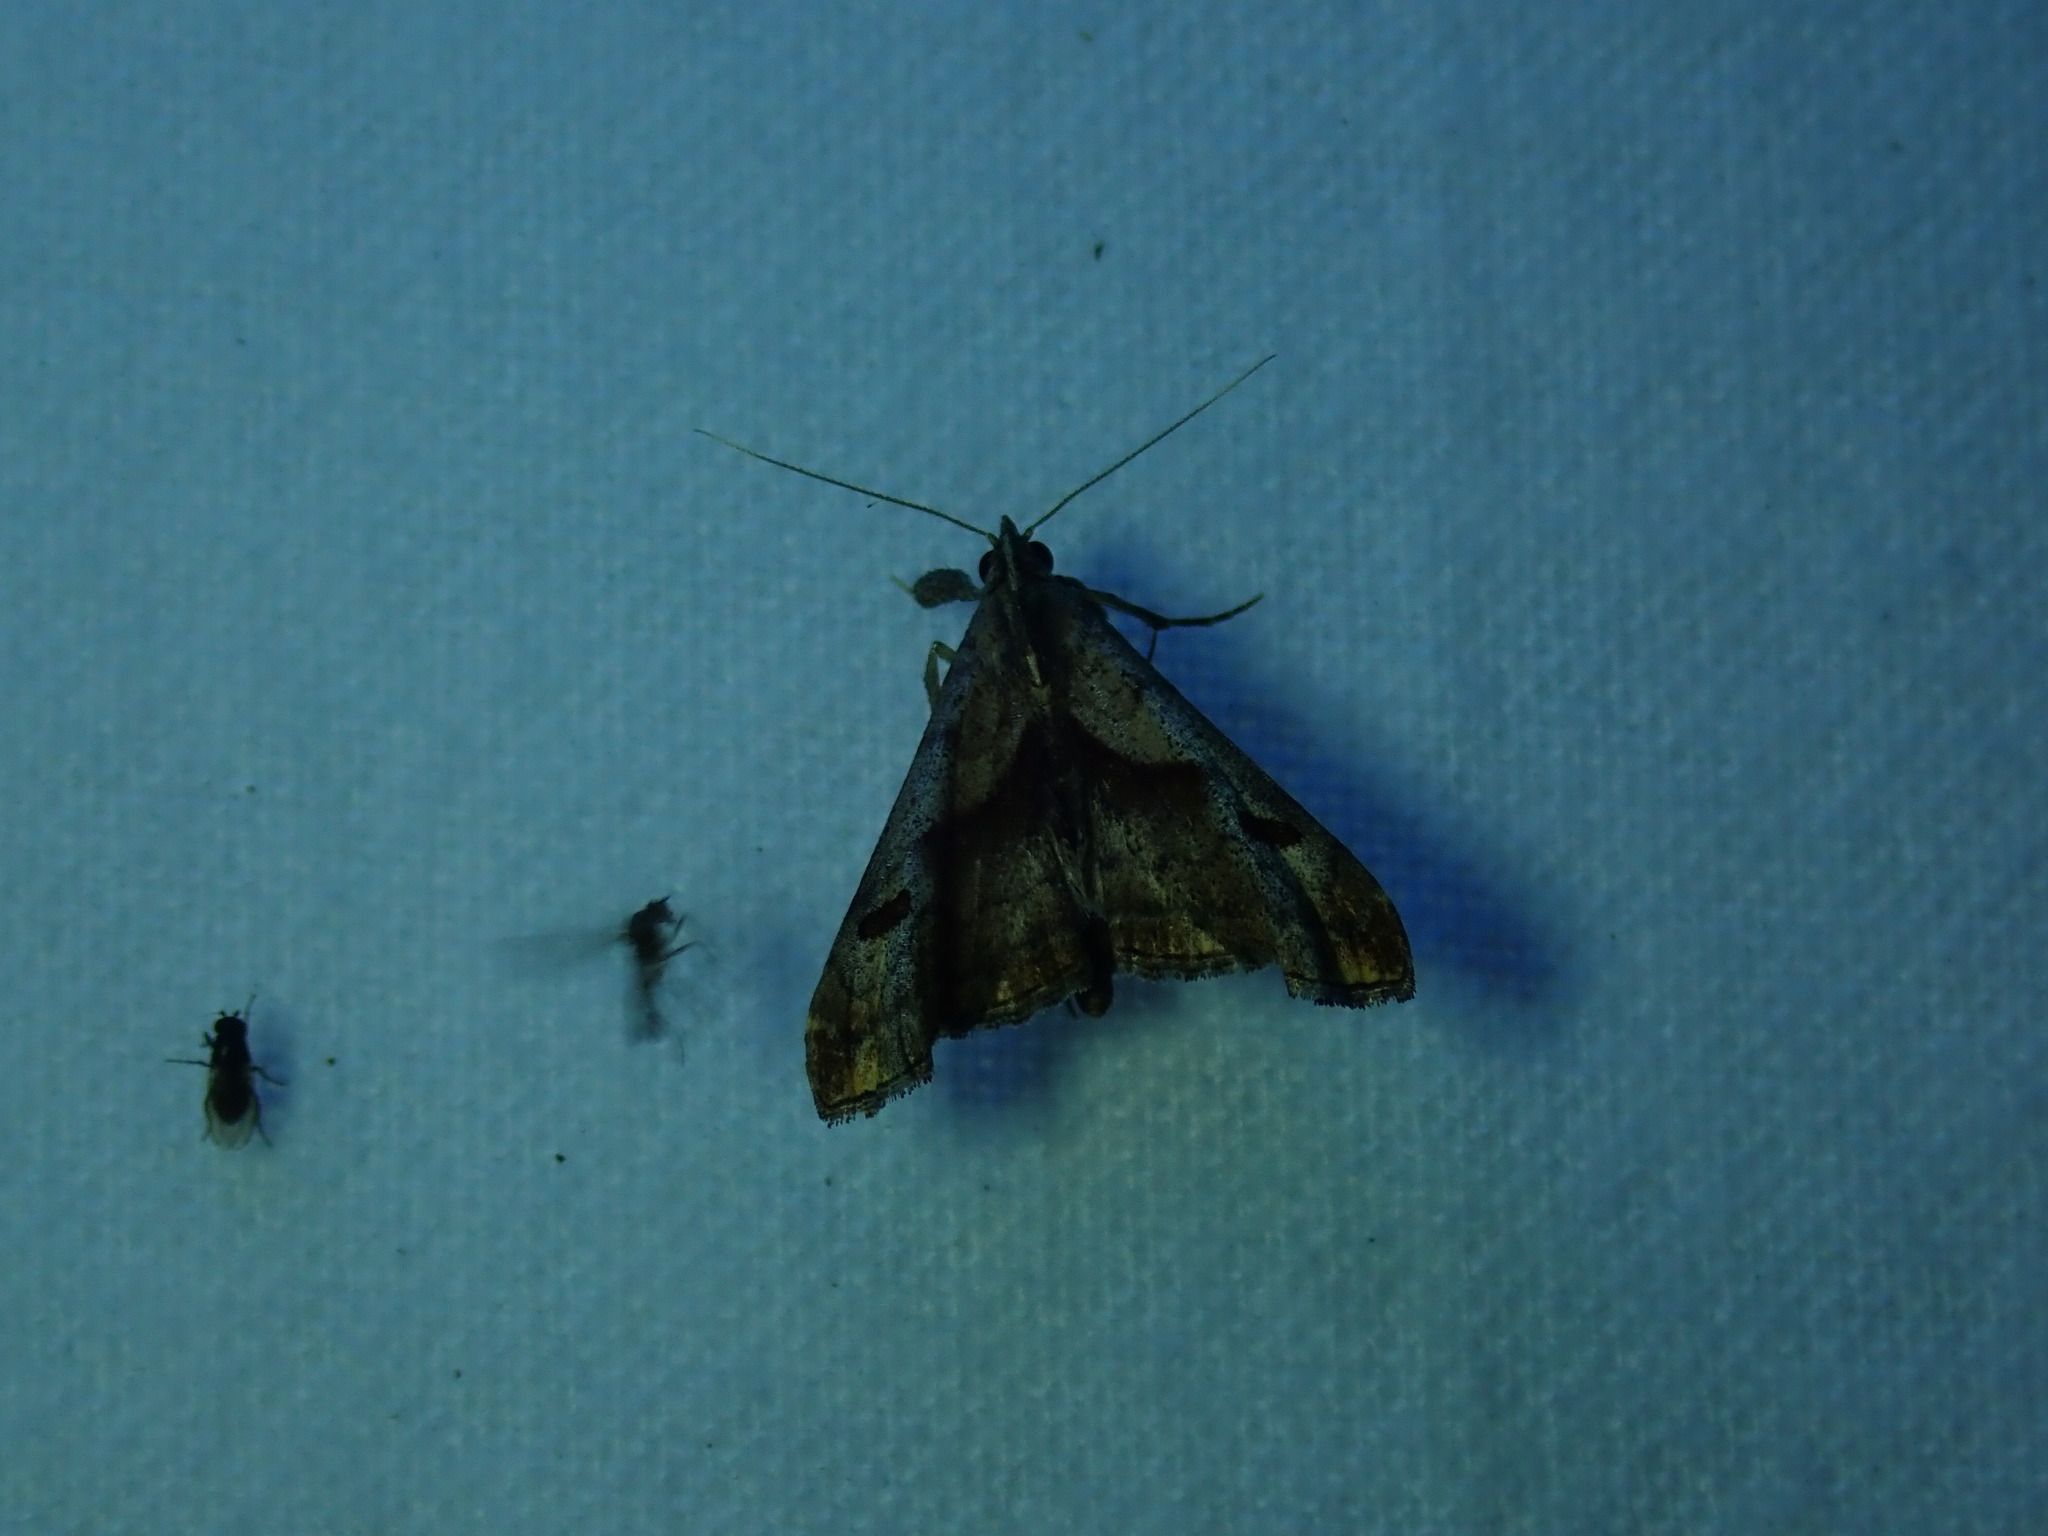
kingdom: Animalia
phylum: Arthropoda
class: Insecta
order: Lepidoptera
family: Erebidae
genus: Palthis
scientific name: Palthis angulalis
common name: Dark-spotted palthis moth
